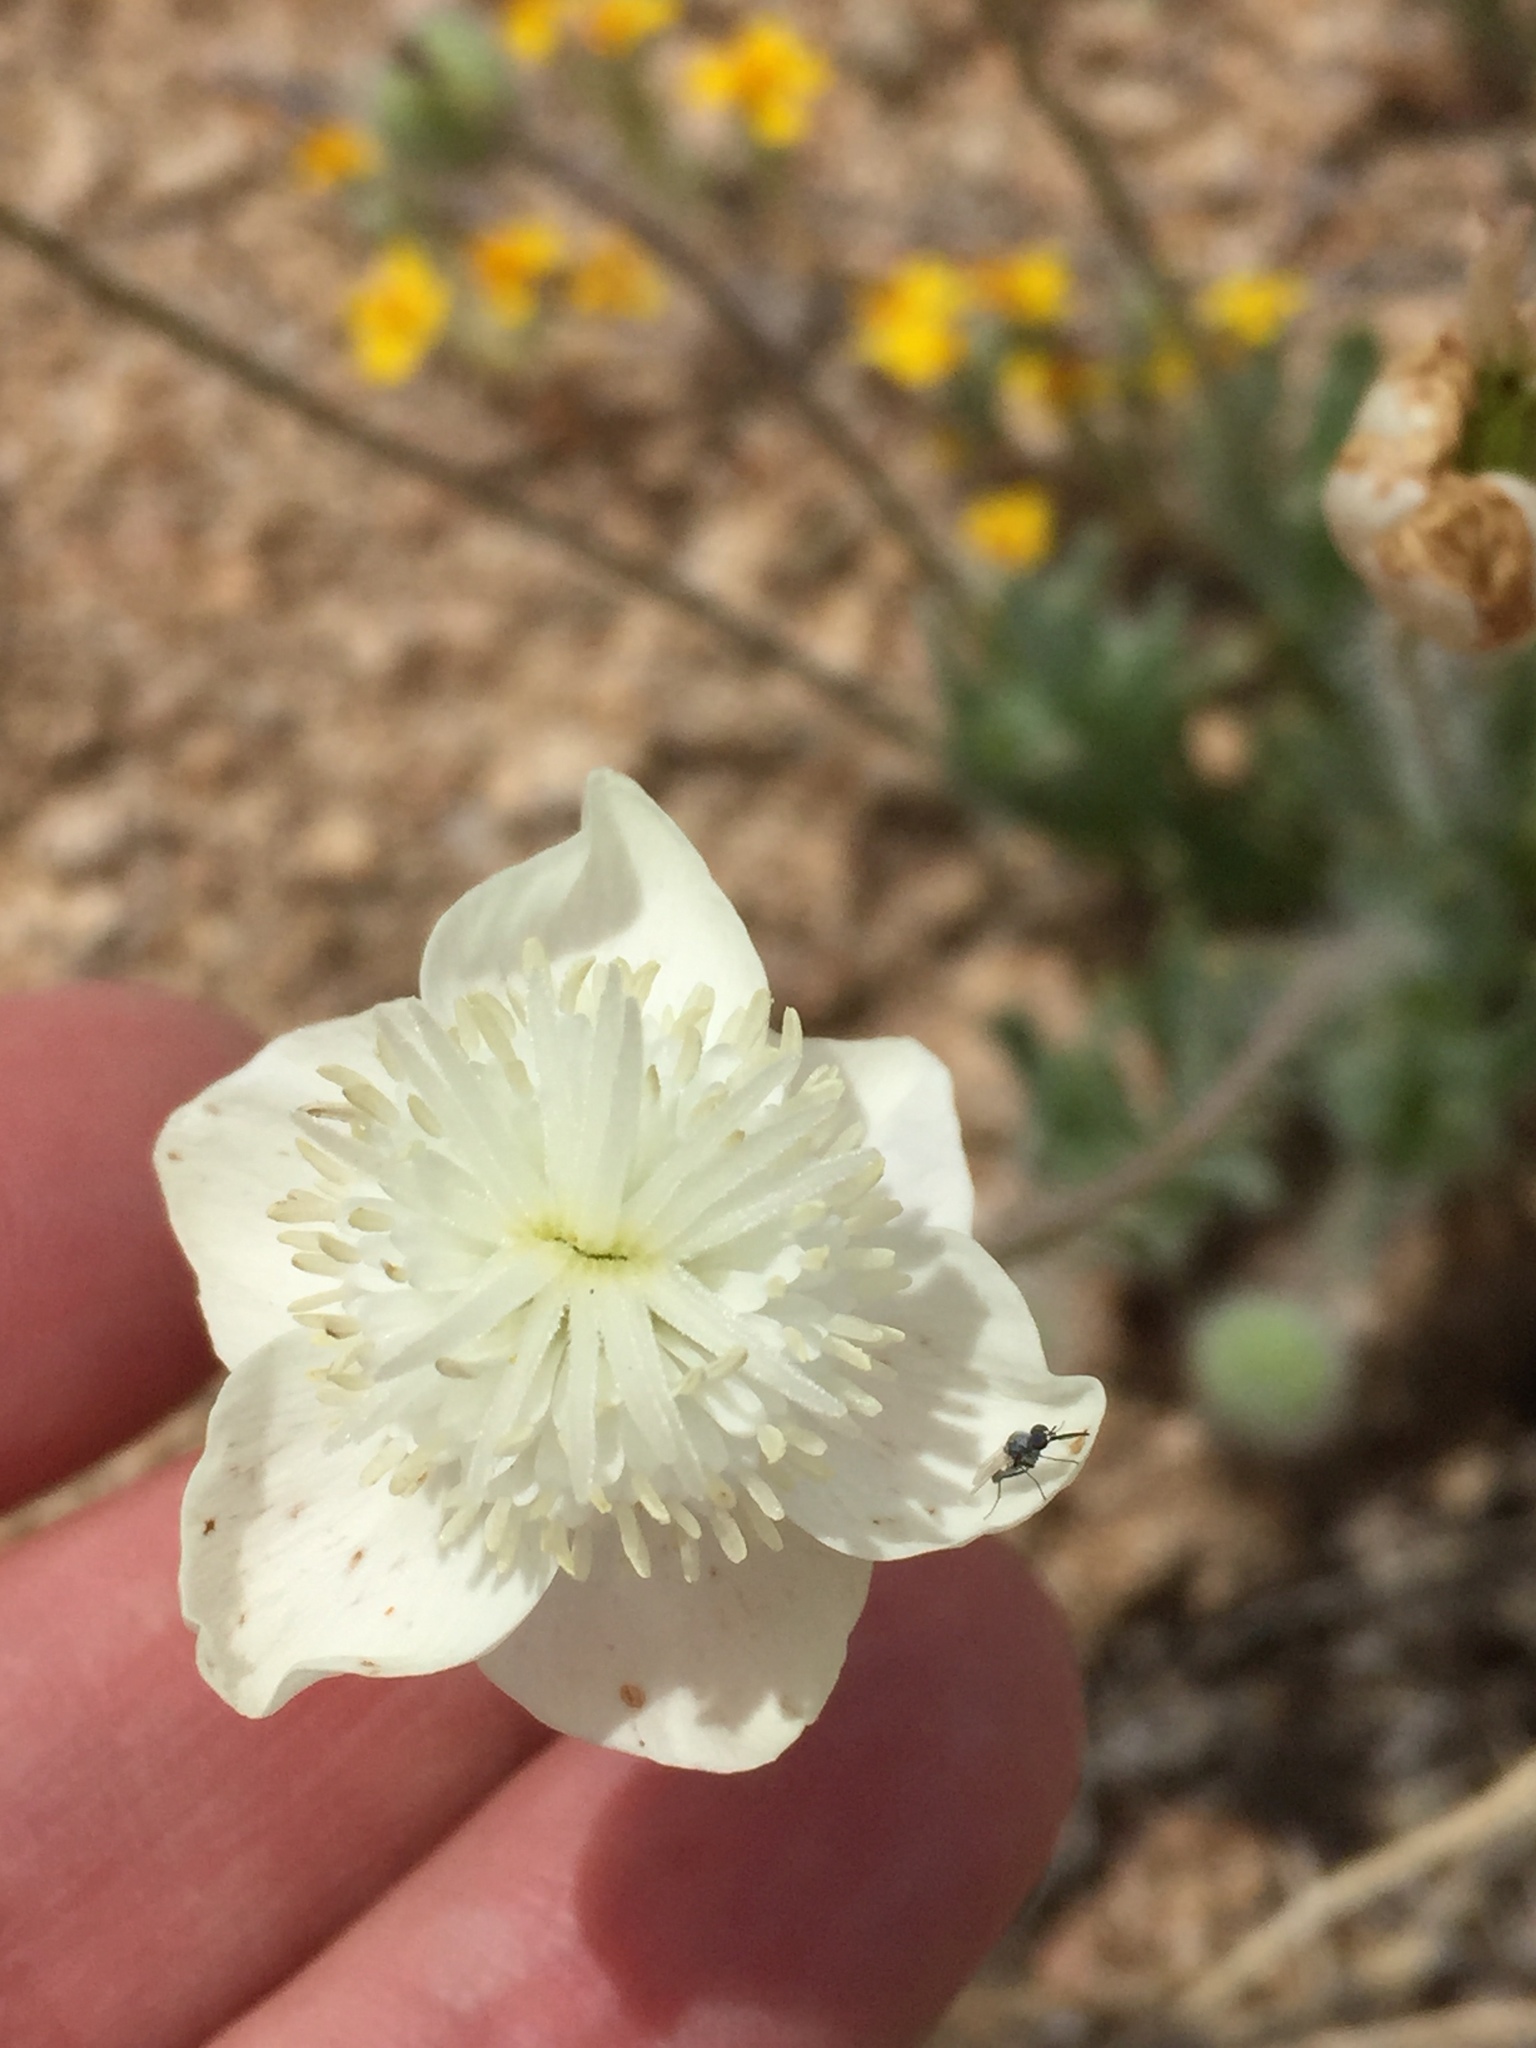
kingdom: Plantae
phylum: Tracheophyta
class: Magnoliopsida
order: Ranunculales
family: Papaveraceae
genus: Platystemon
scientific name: Platystemon californicus
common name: Cream-cups
